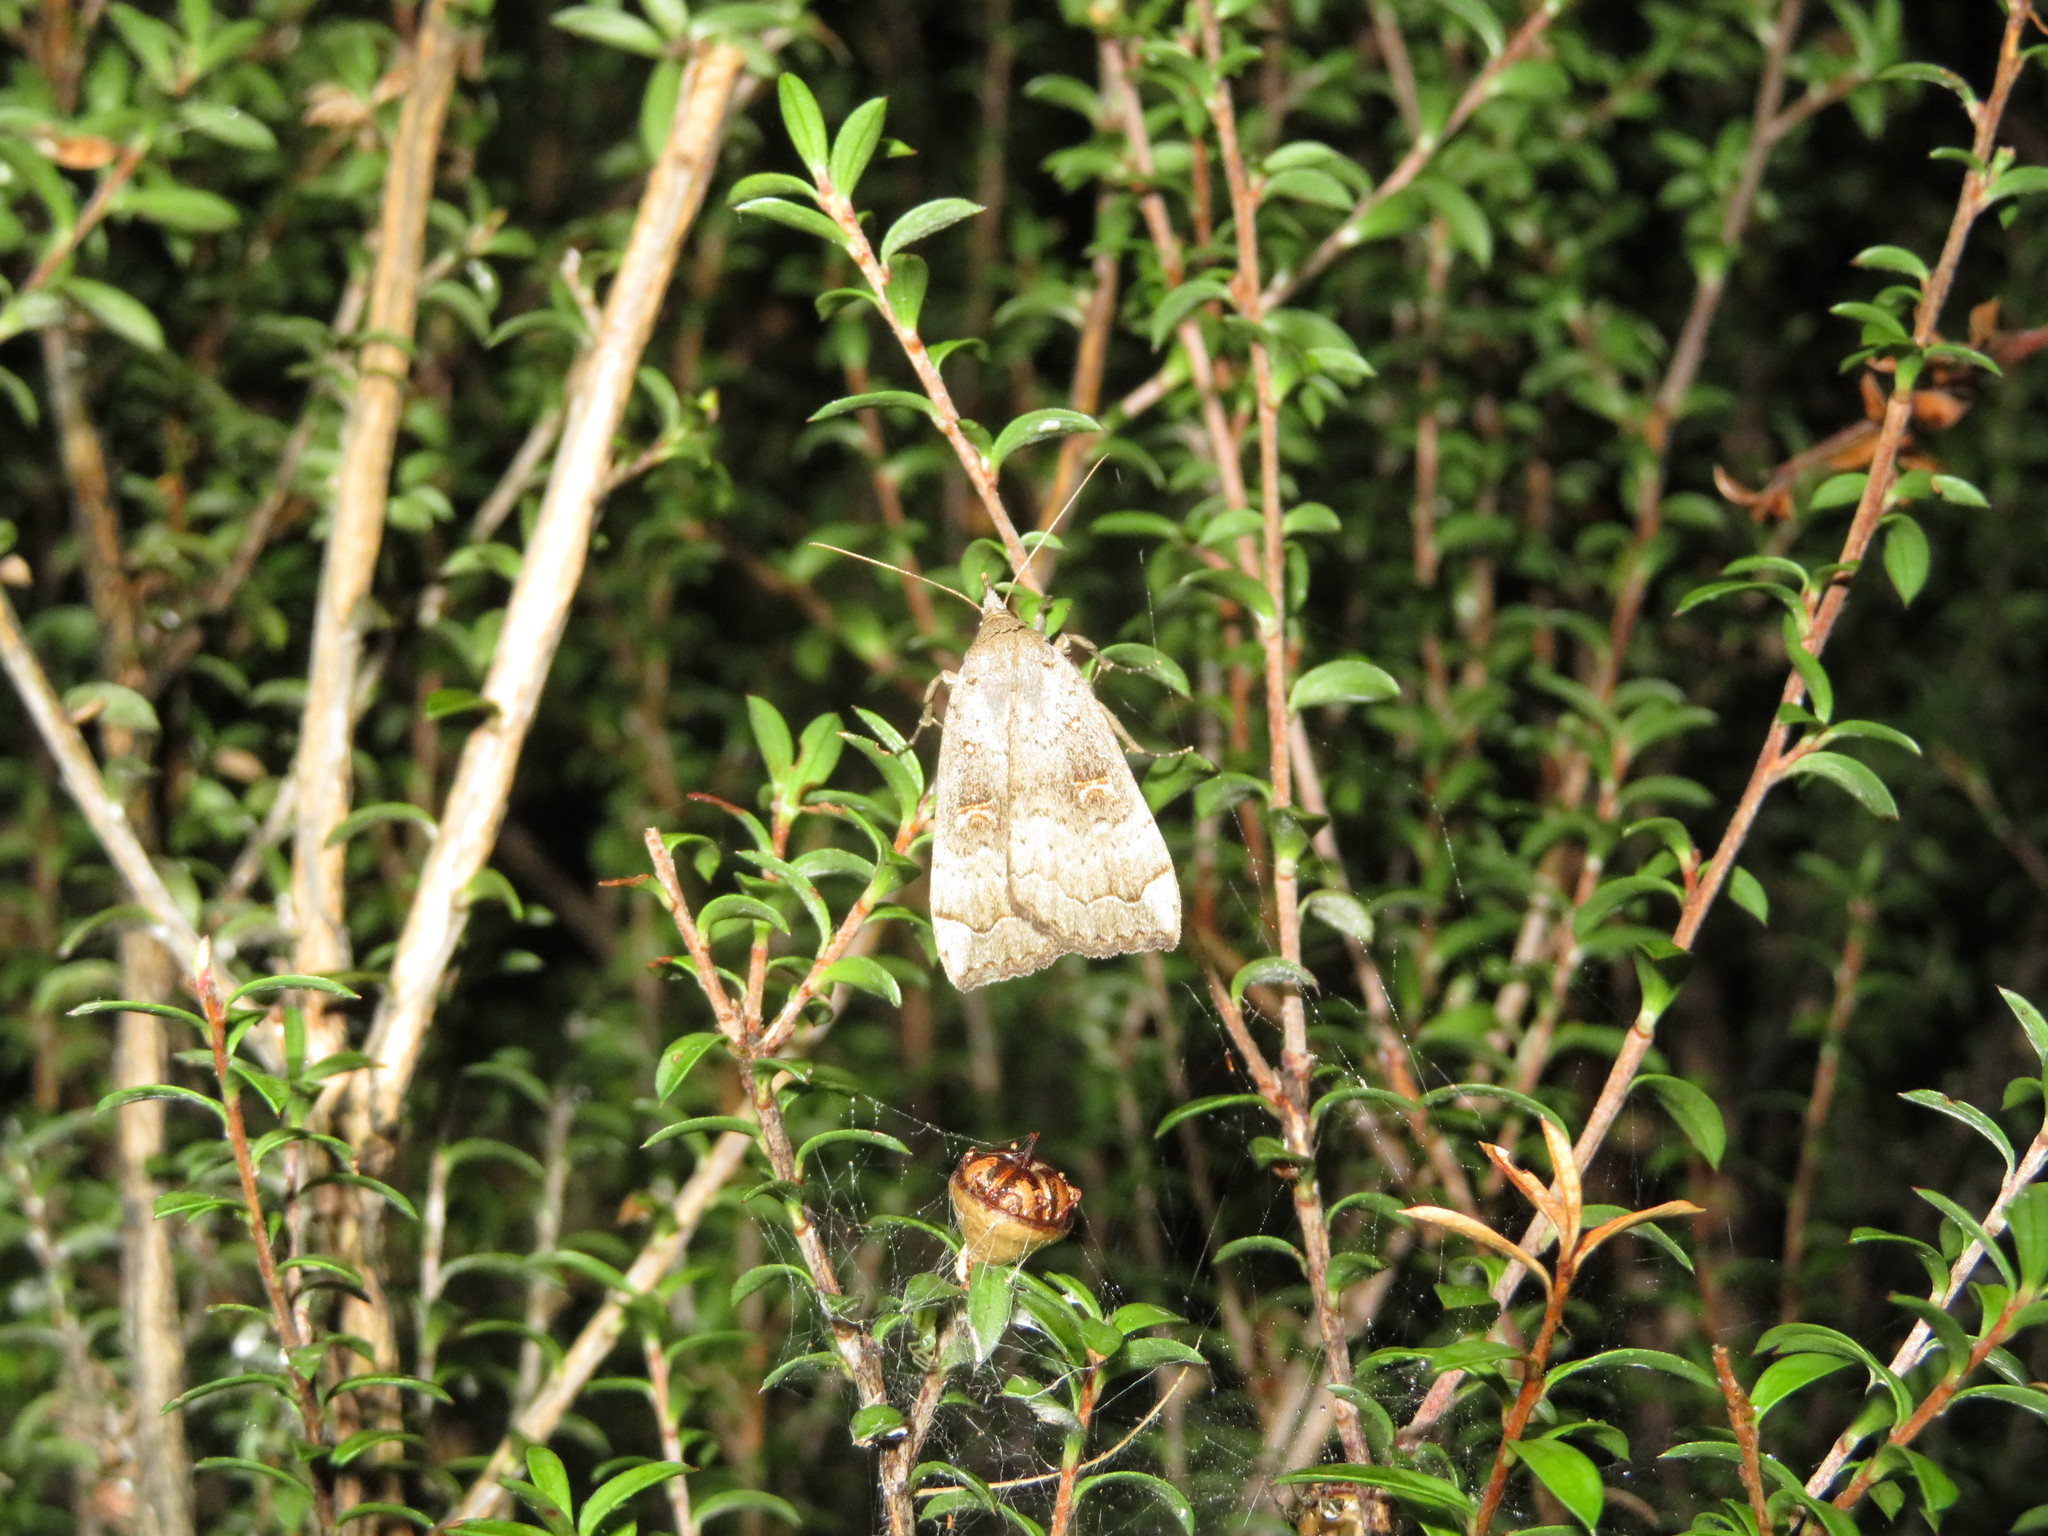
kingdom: Animalia
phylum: Arthropoda
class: Insecta
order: Lepidoptera
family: Erebidae
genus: Rhapsa
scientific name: Rhapsa scotosialis
